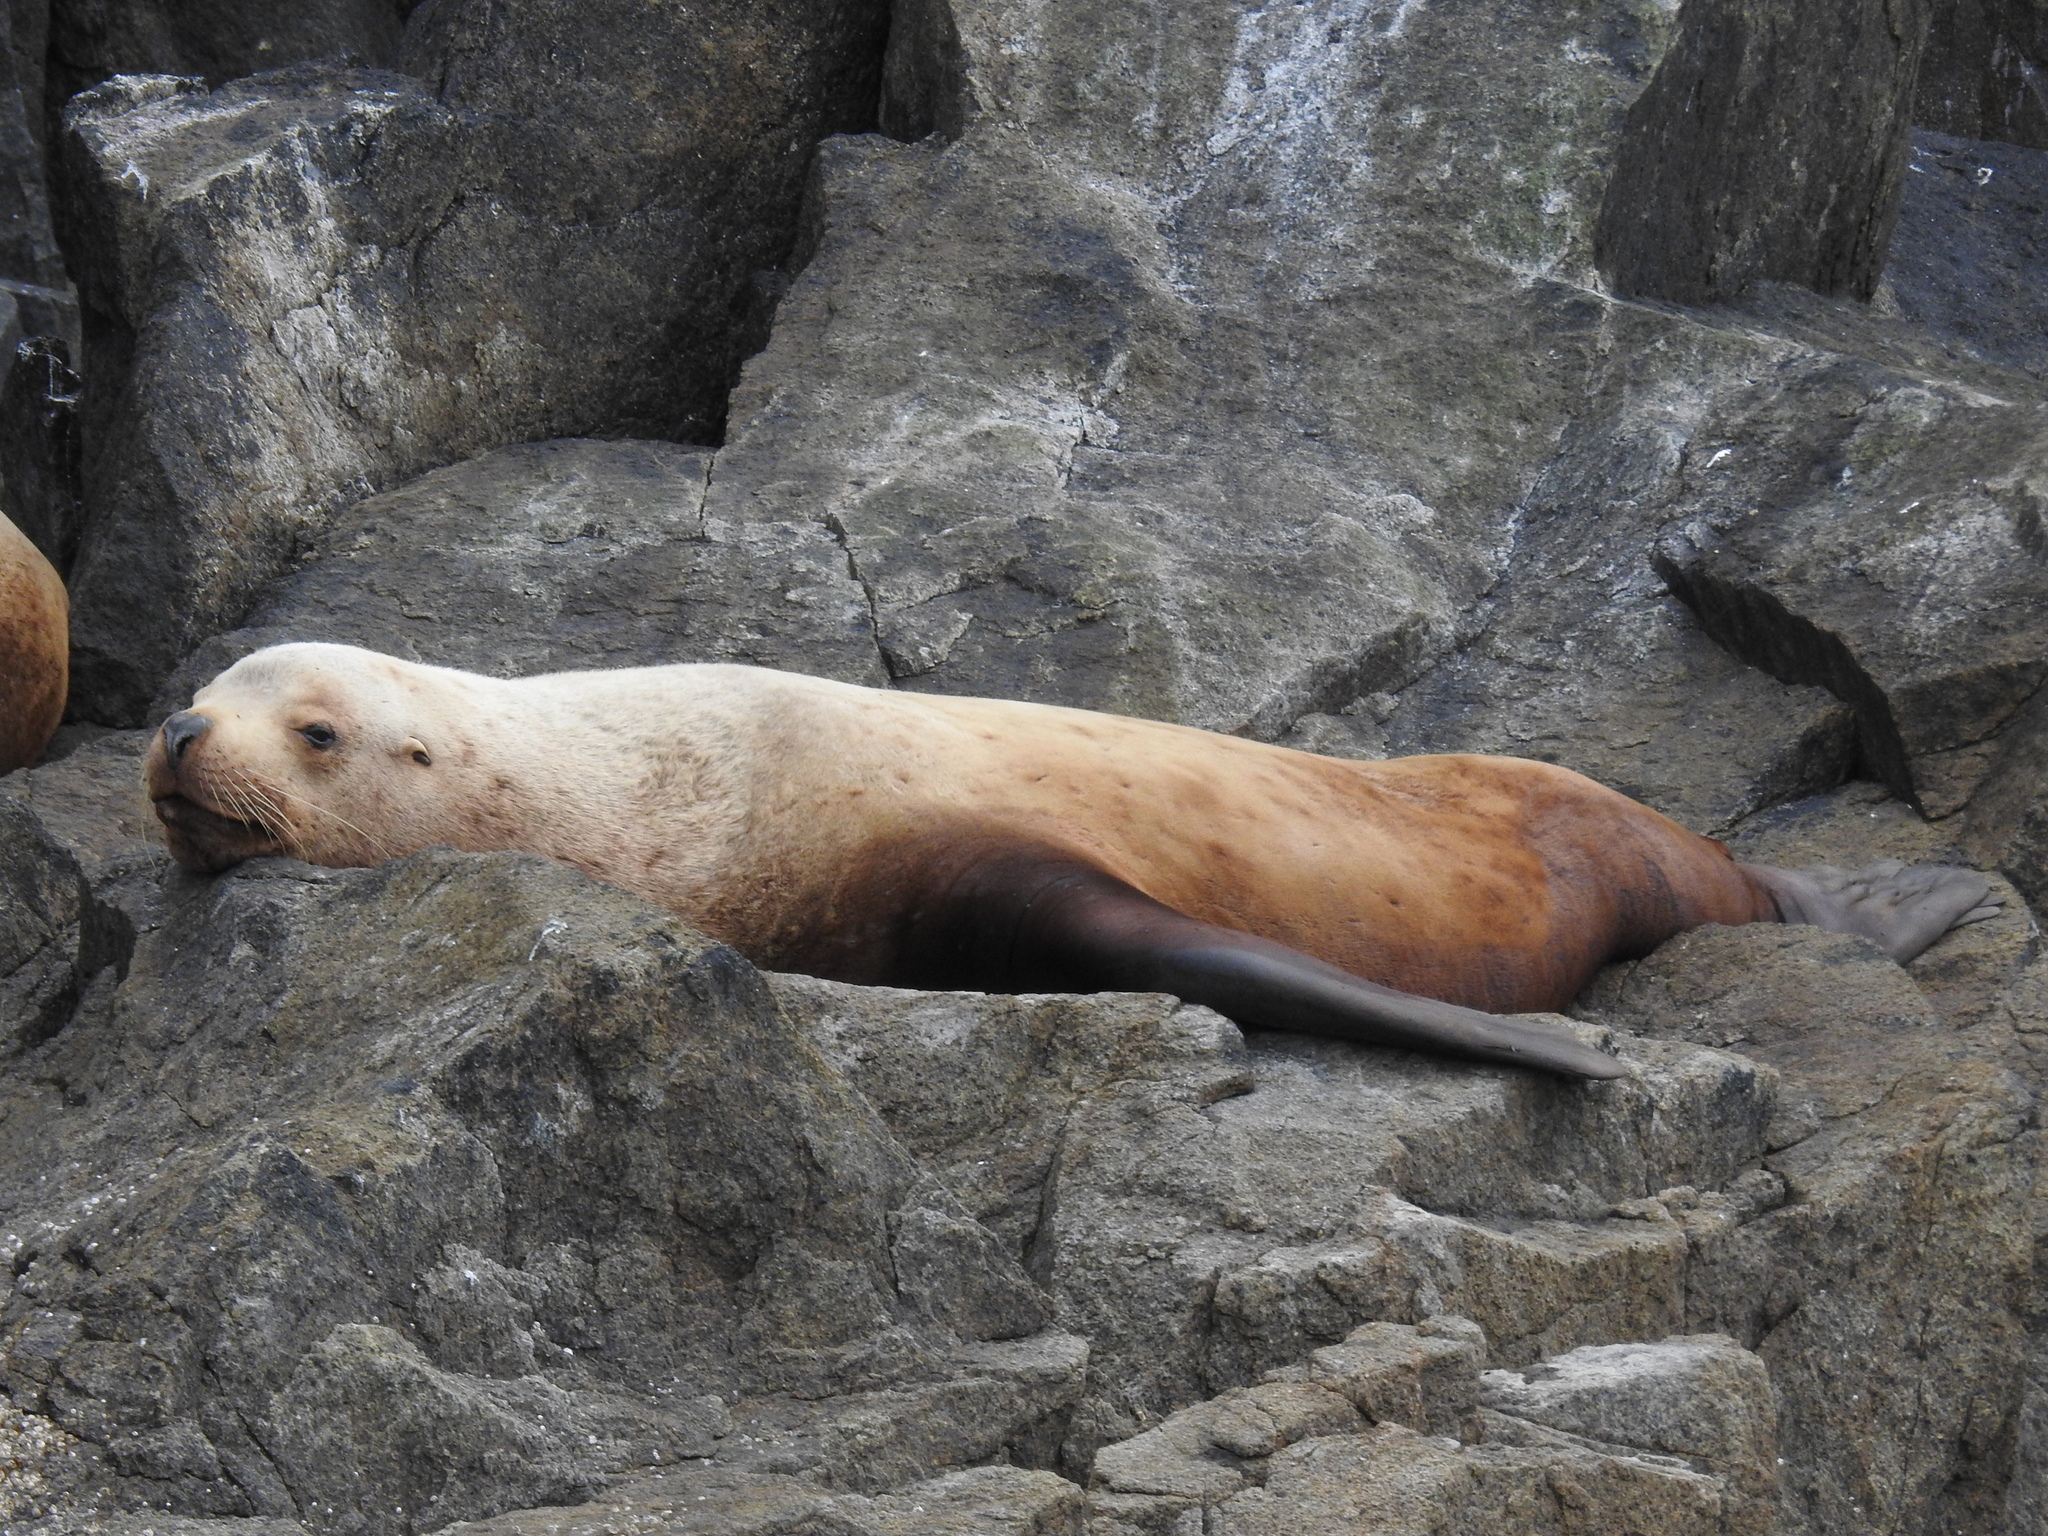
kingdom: Animalia
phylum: Chordata
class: Mammalia
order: Carnivora
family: Otariidae
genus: Eumetopias
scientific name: Eumetopias jubatus
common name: Steller sea lion
